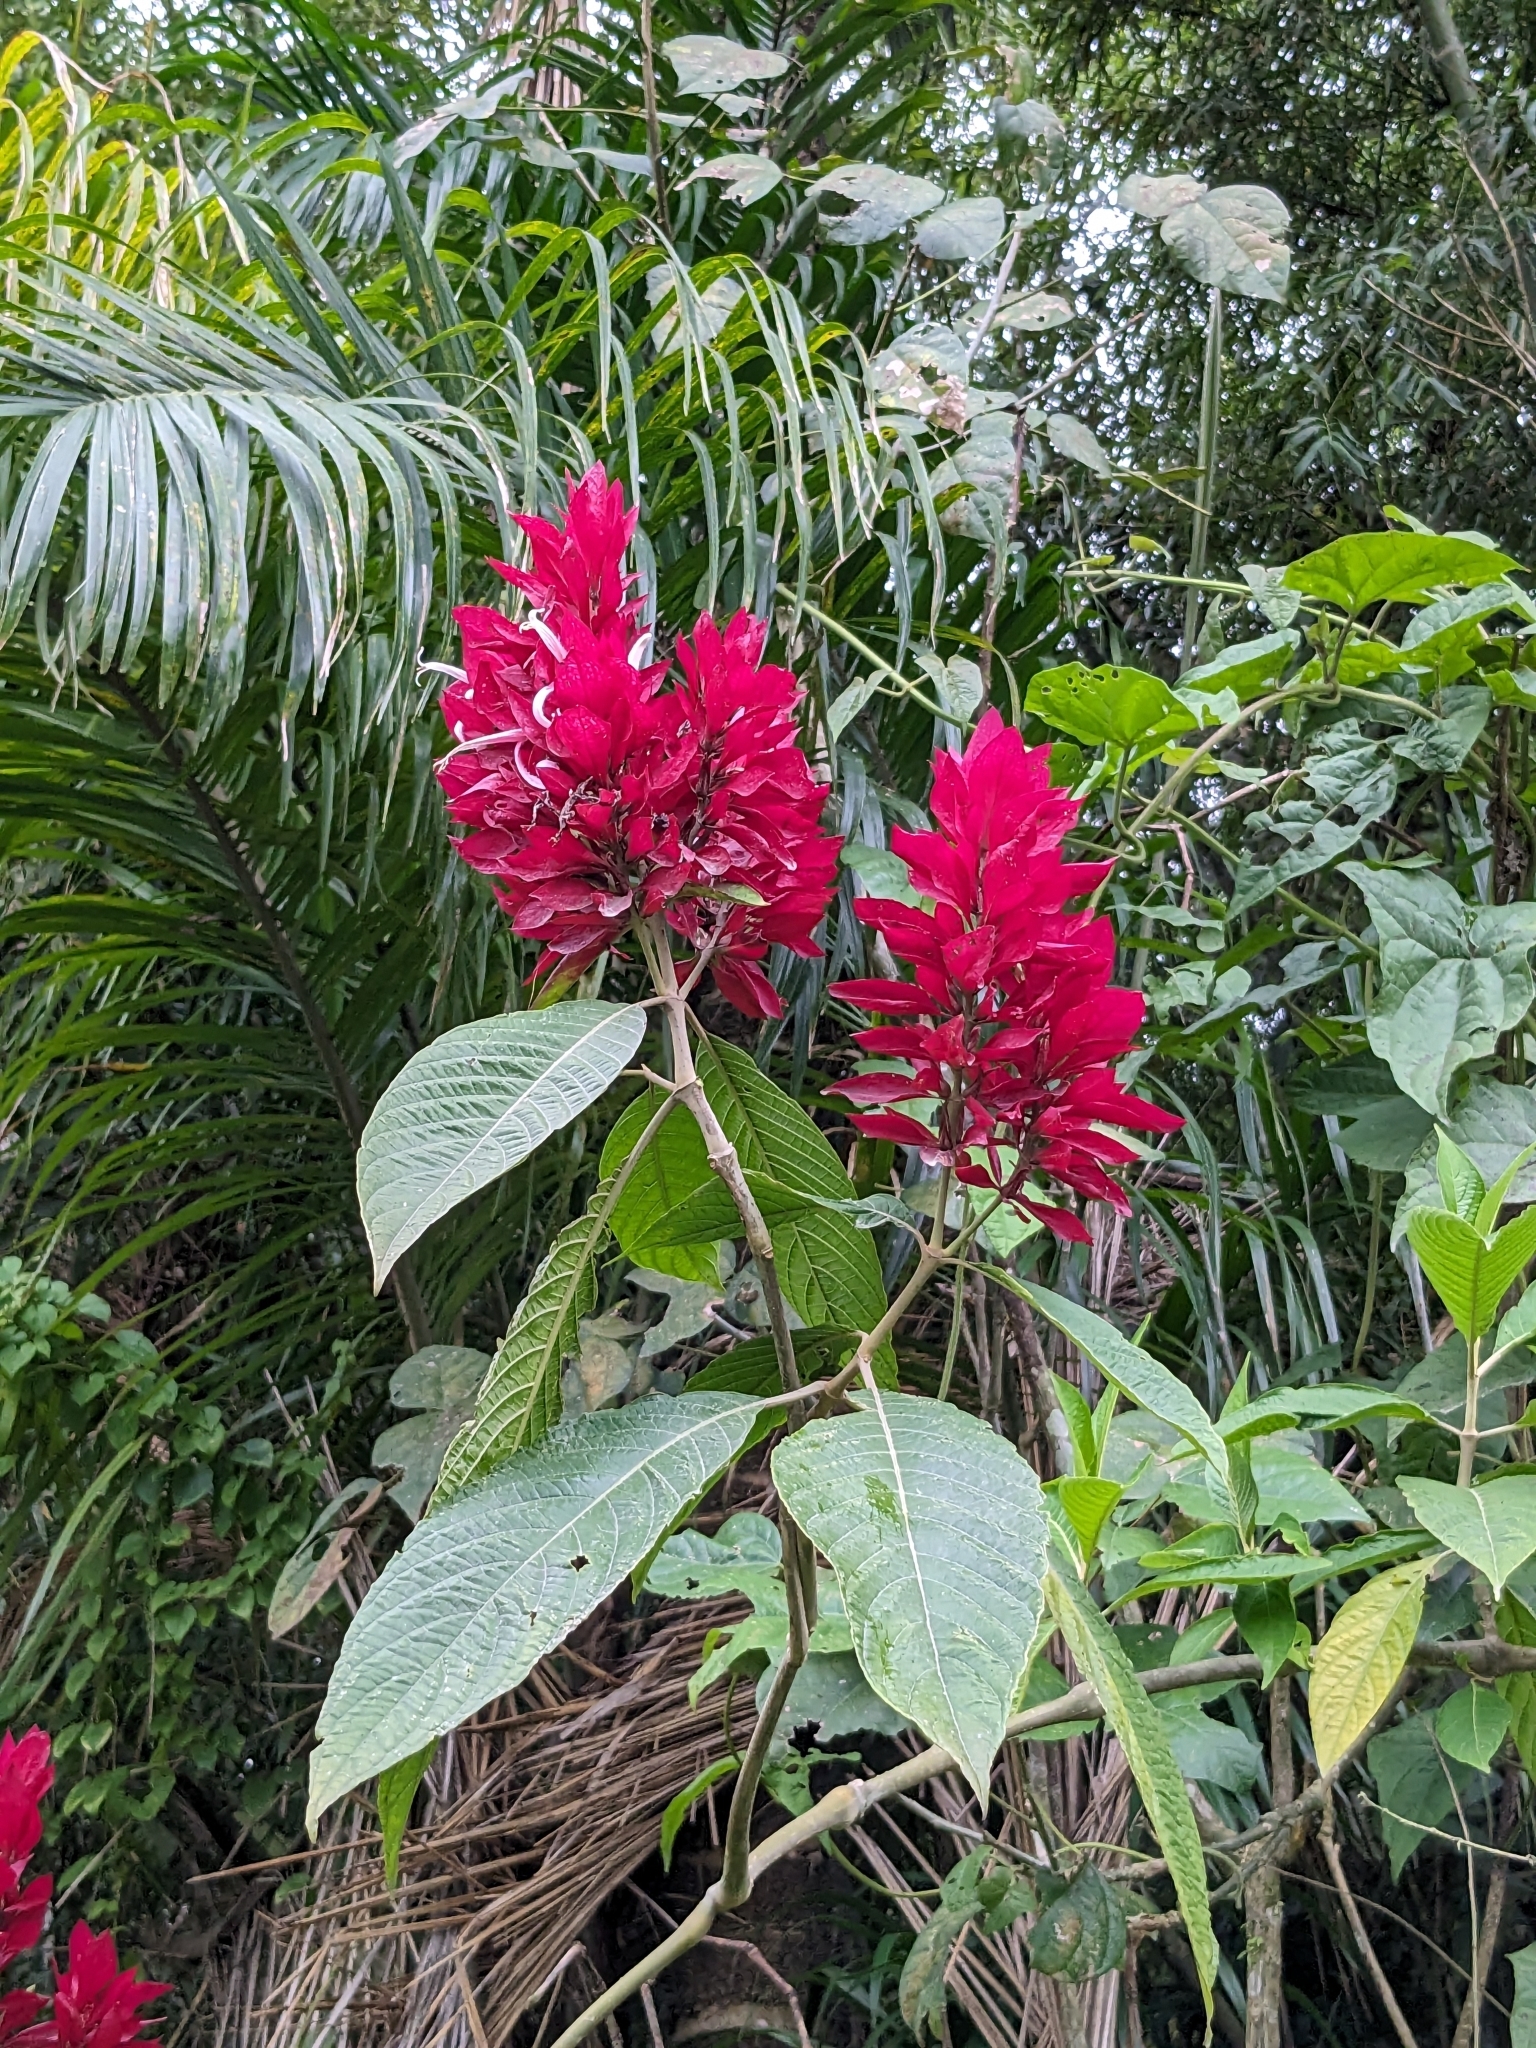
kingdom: Plantae
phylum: Tracheophyta
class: Magnoliopsida
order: Lamiales
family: Acanthaceae
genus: Megaskepasma
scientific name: Megaskepasma erythrochlamys
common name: Brazilian red-cloak
